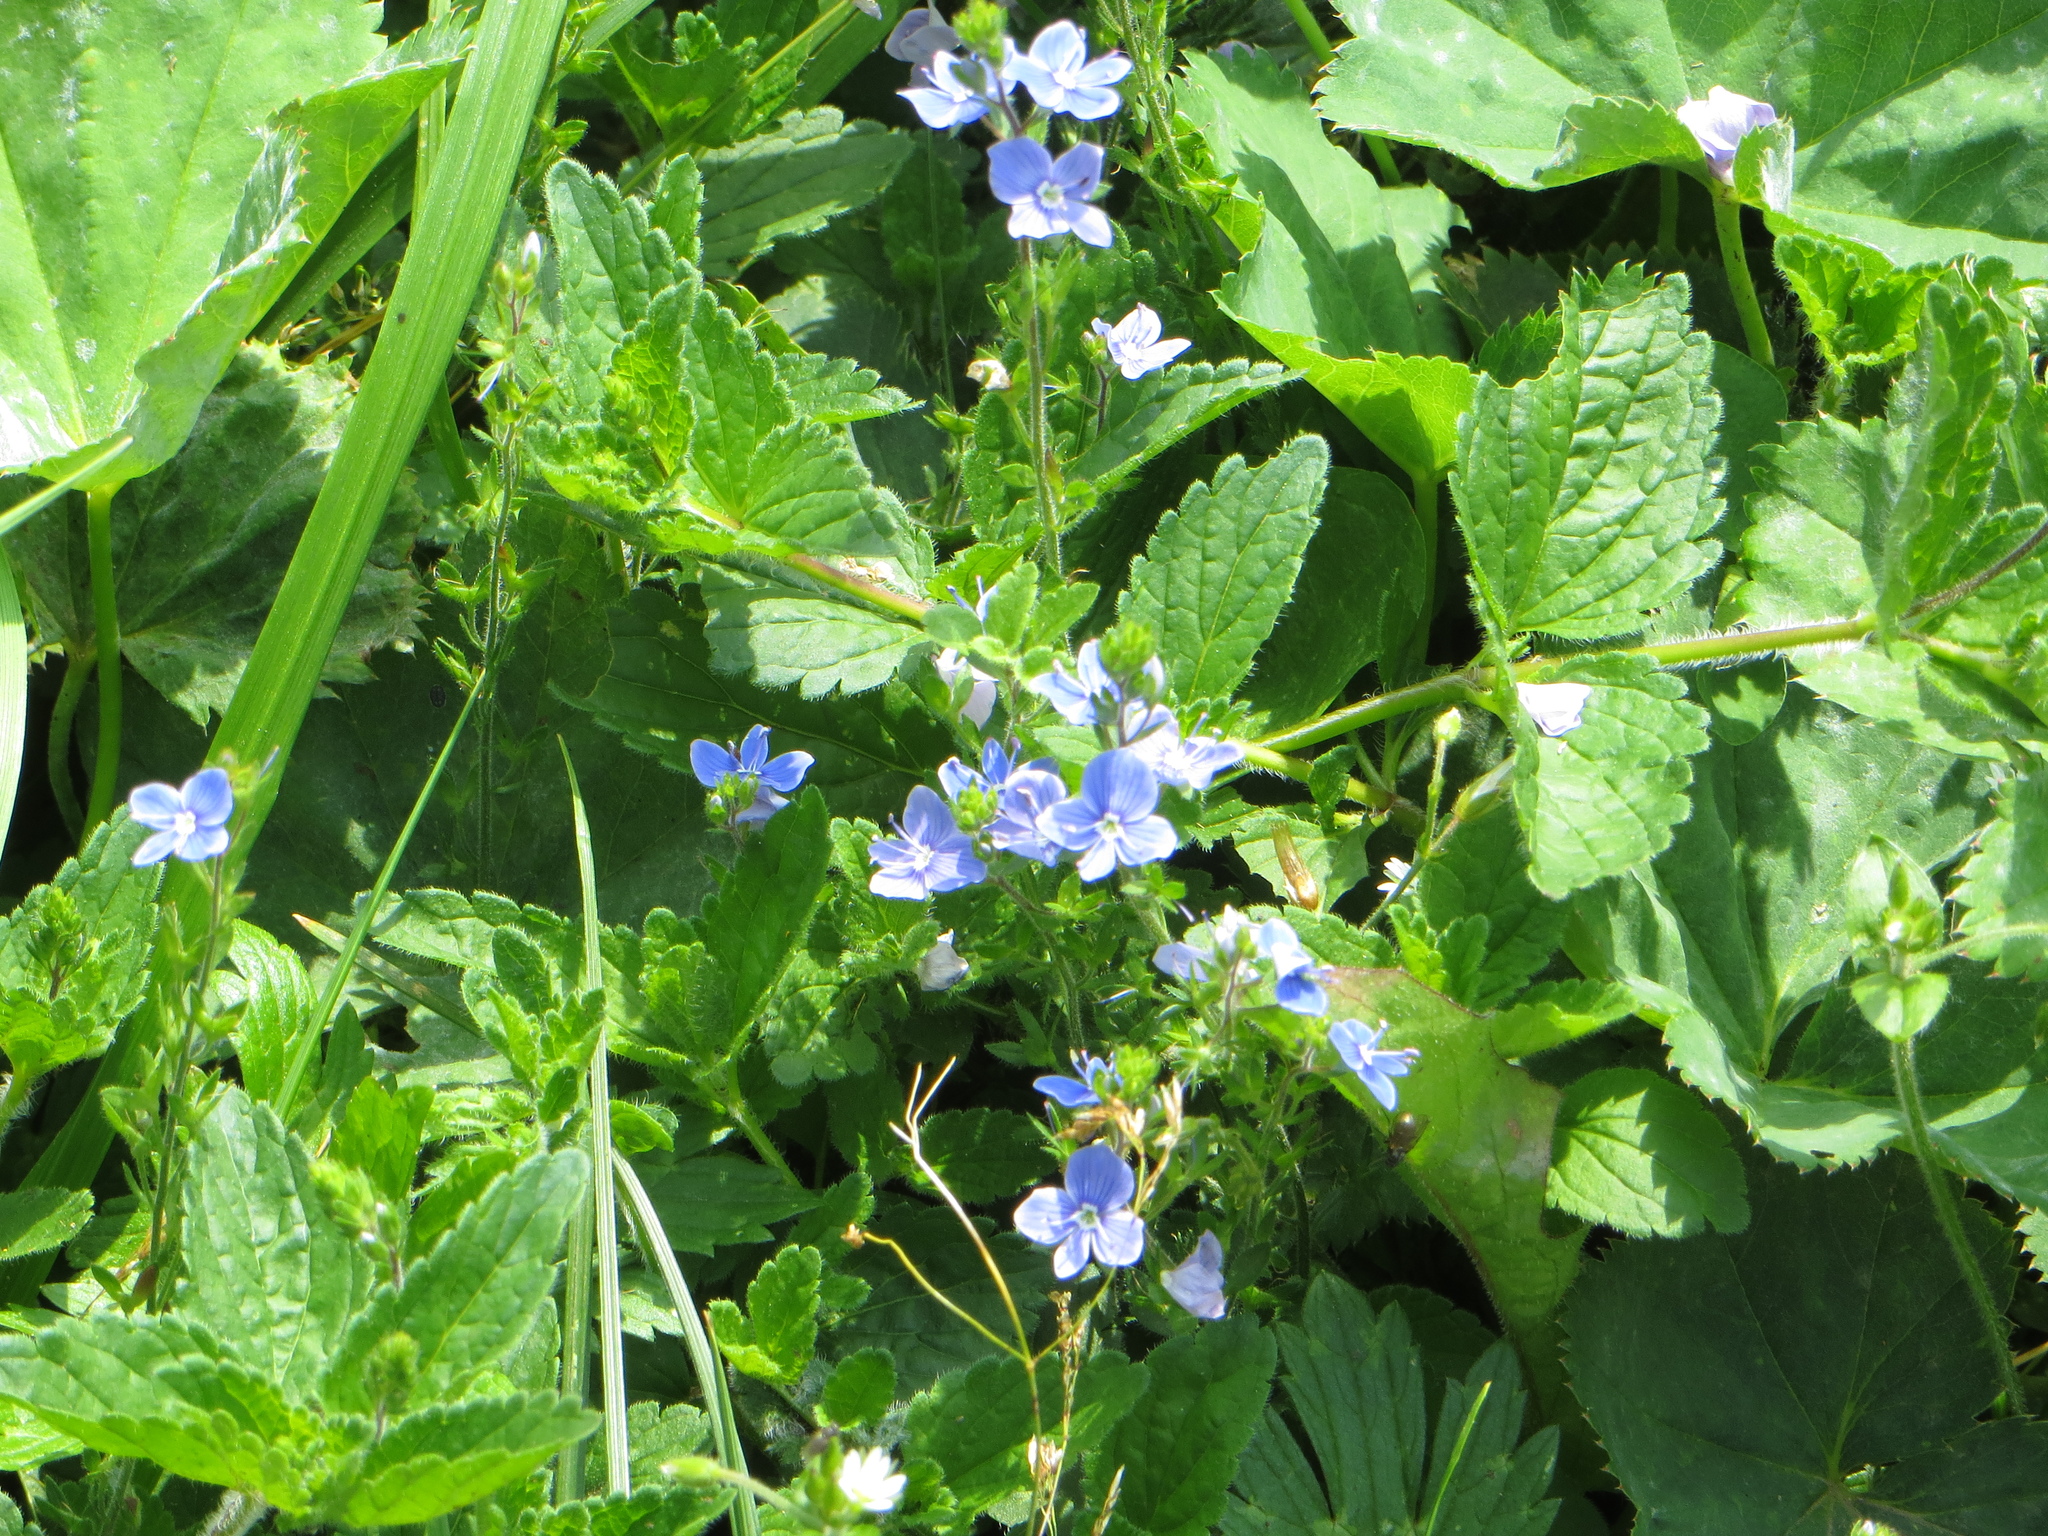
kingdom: Plantae
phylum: Tracheophyta
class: Magnoliopsida
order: Lamiales
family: Plantaginaceae
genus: Veronica
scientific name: Veronica chamaedrys
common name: Germander speedwell
